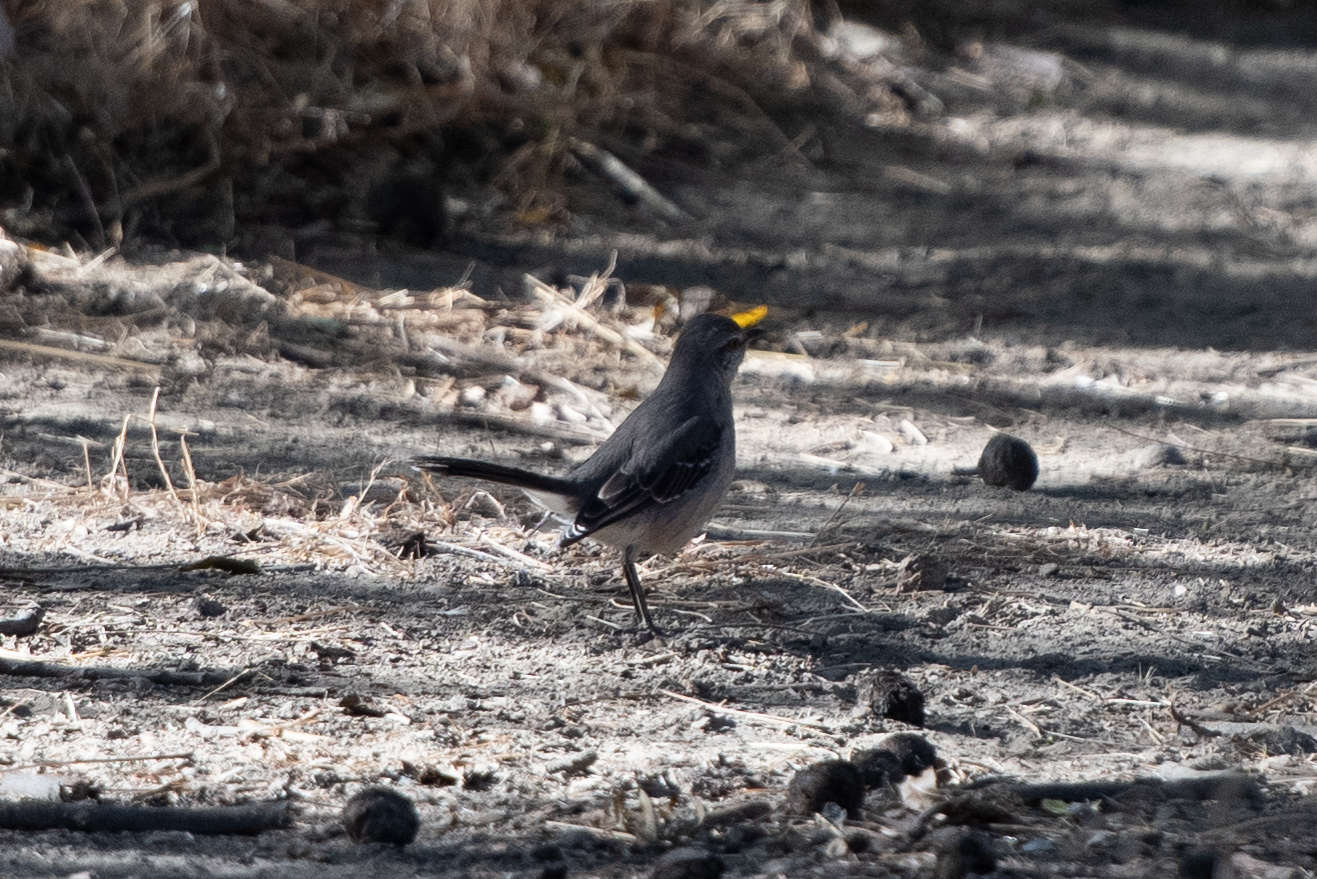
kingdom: Animalia
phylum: Chordata
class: Aves
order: Passeriformes
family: Mimidae
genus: Mimus
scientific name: Mimus polyglottos
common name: Northern mockingbird
